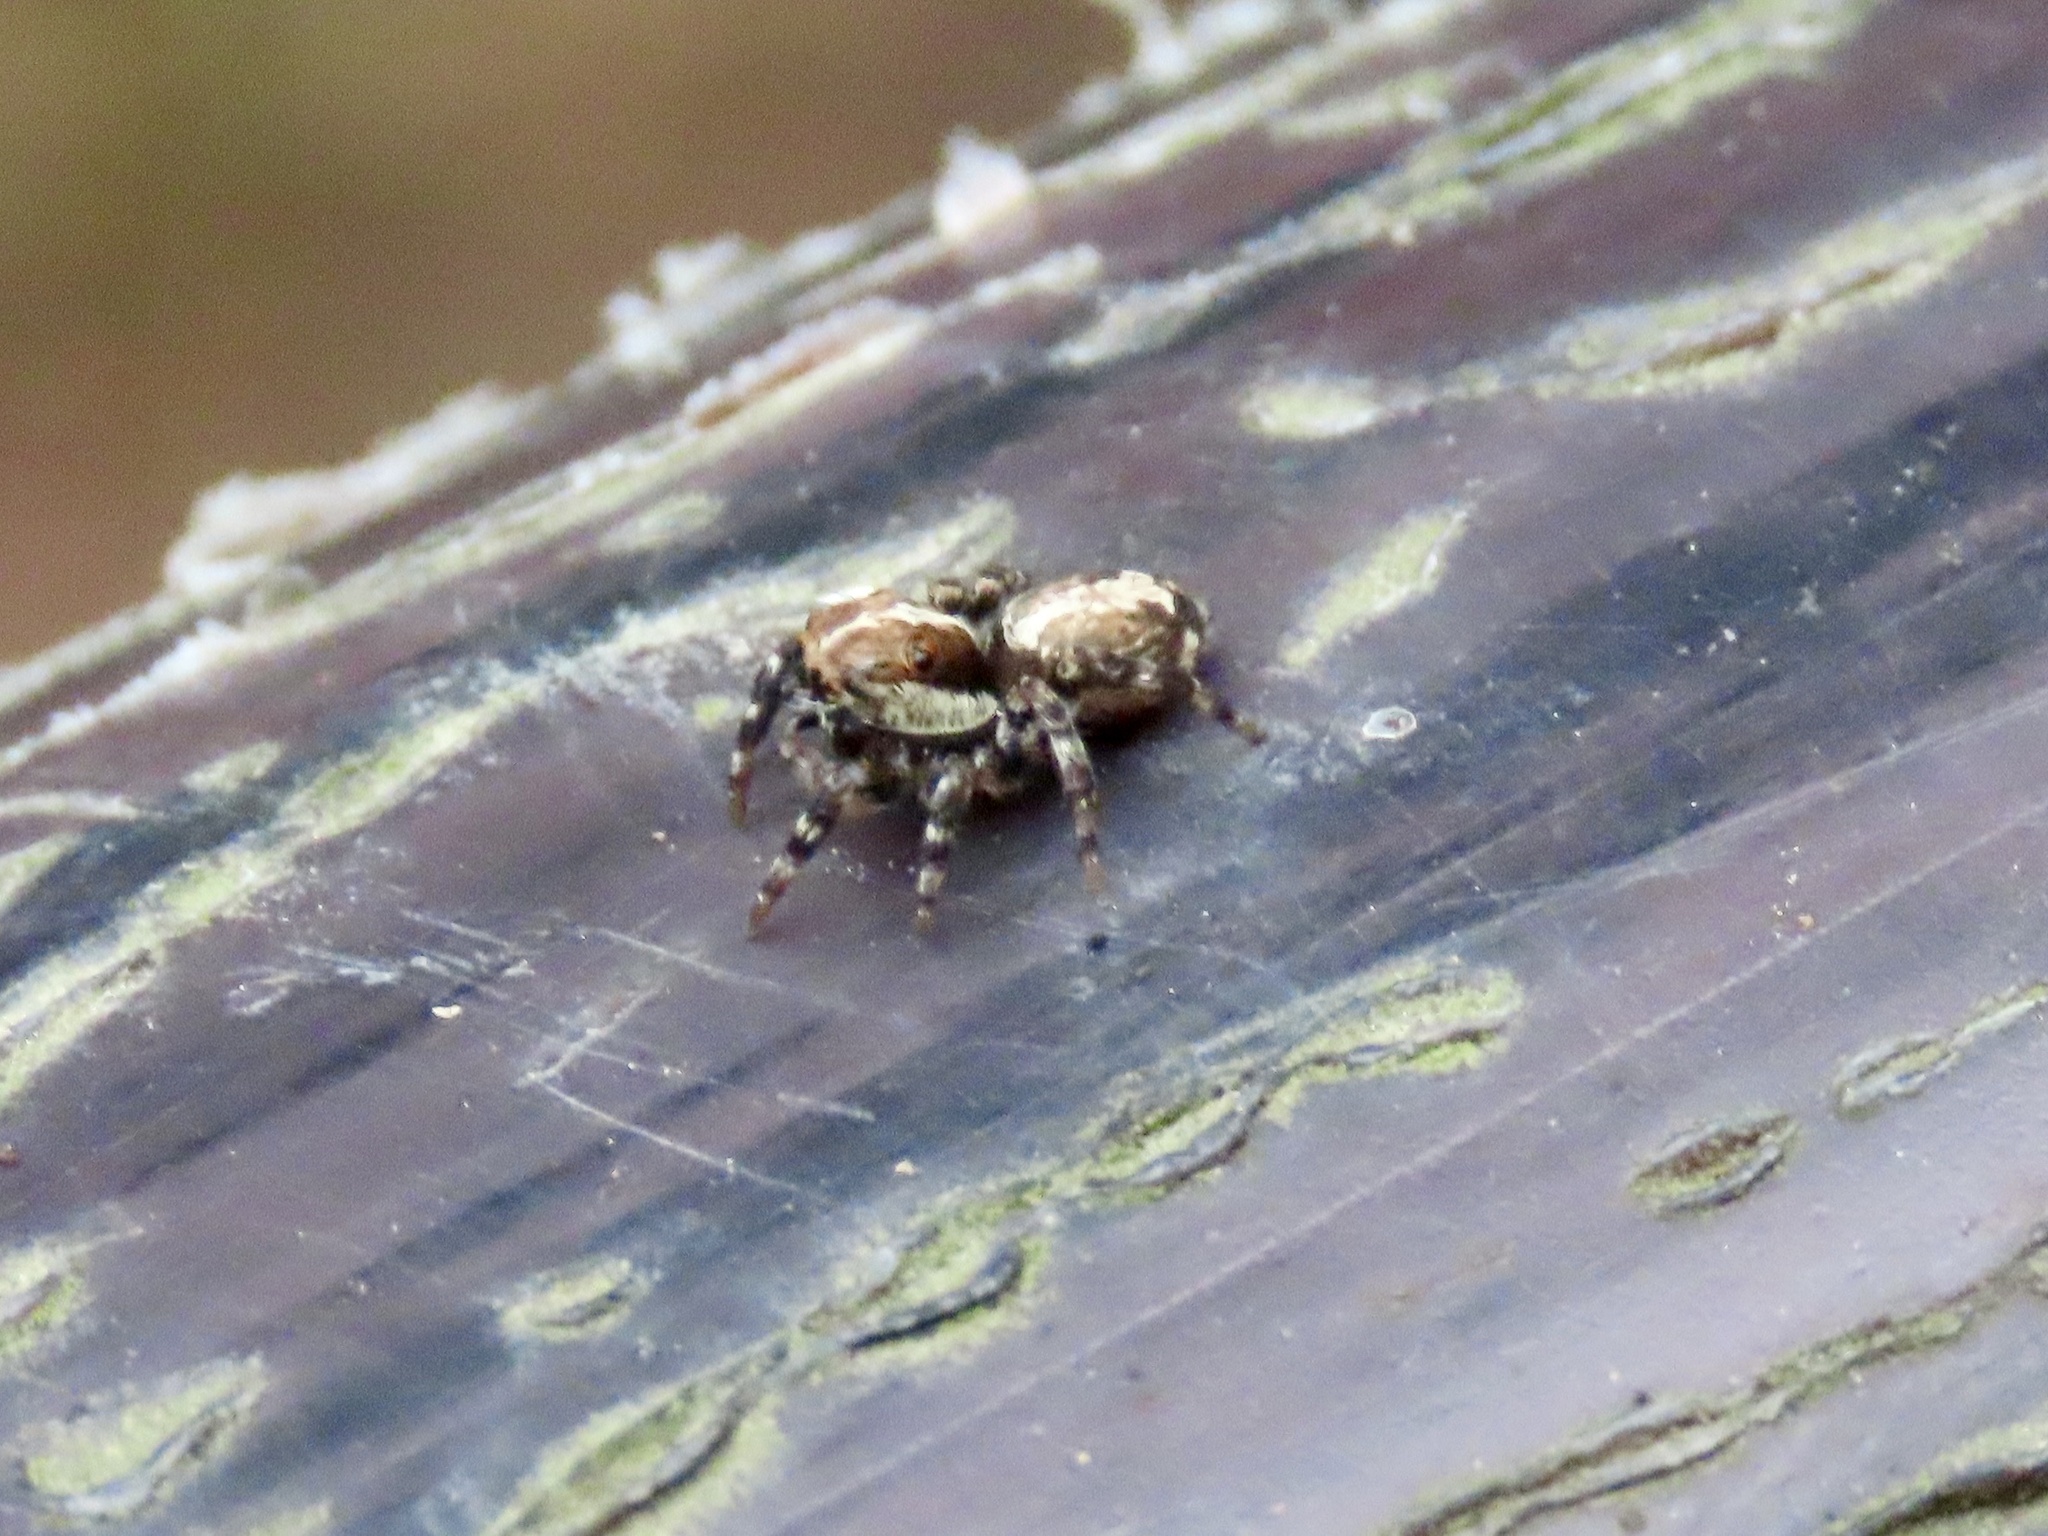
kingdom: Animalia
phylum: Arthropoda
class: Arachnida
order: Araneae
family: Salticidae
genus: Thyene
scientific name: Thyene orientalis
